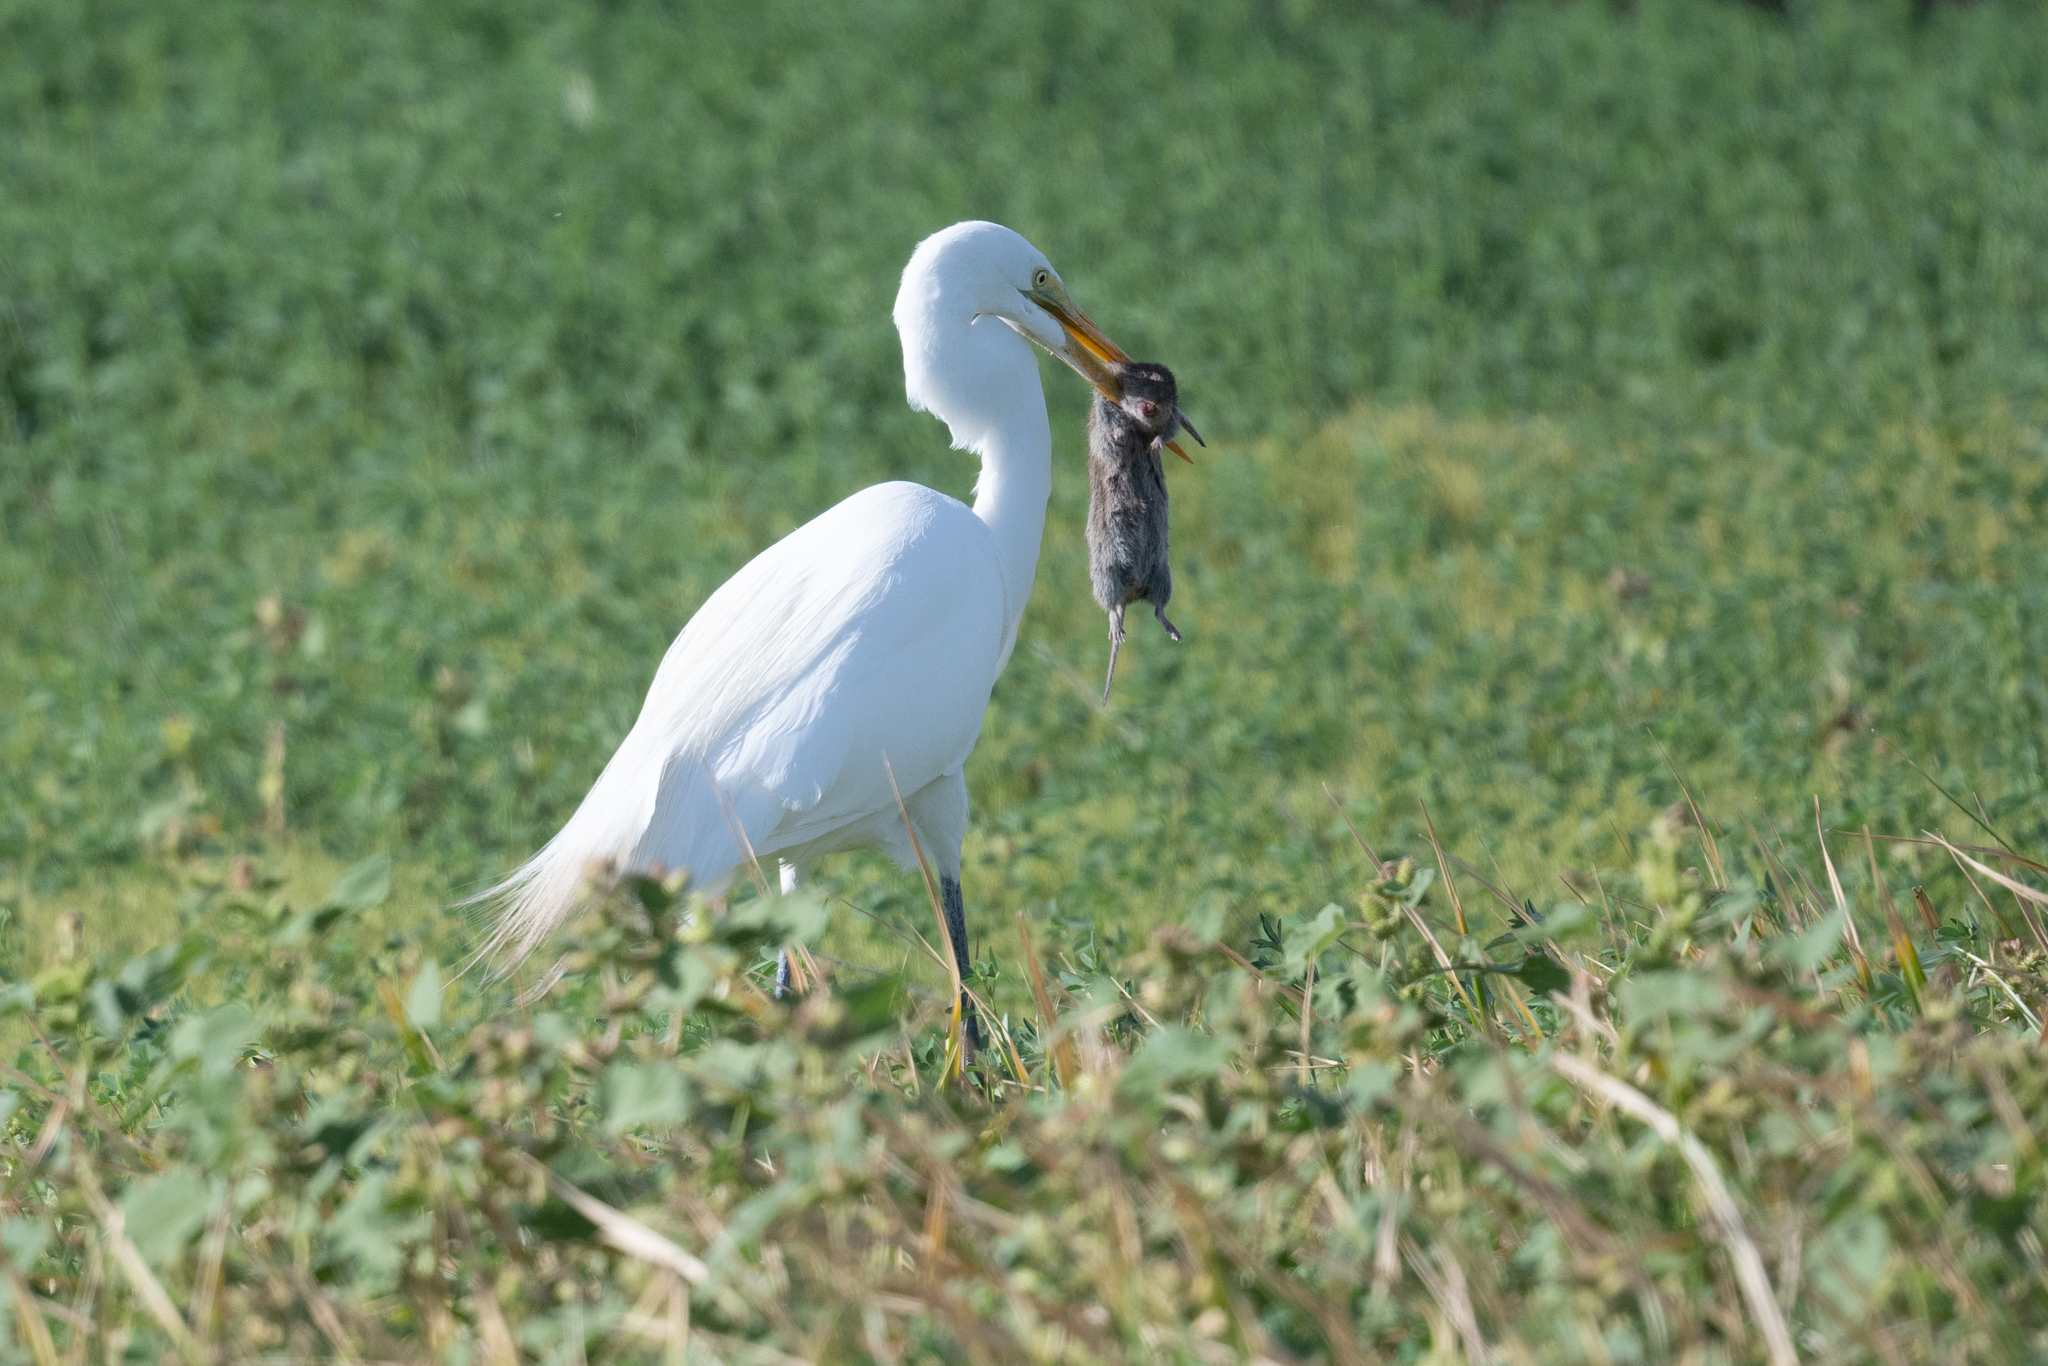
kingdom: Animalia
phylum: Chordata
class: Aves
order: Pelecaniformes
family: Ardeidae
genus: Ardea
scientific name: Ardea alba
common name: Great egret
